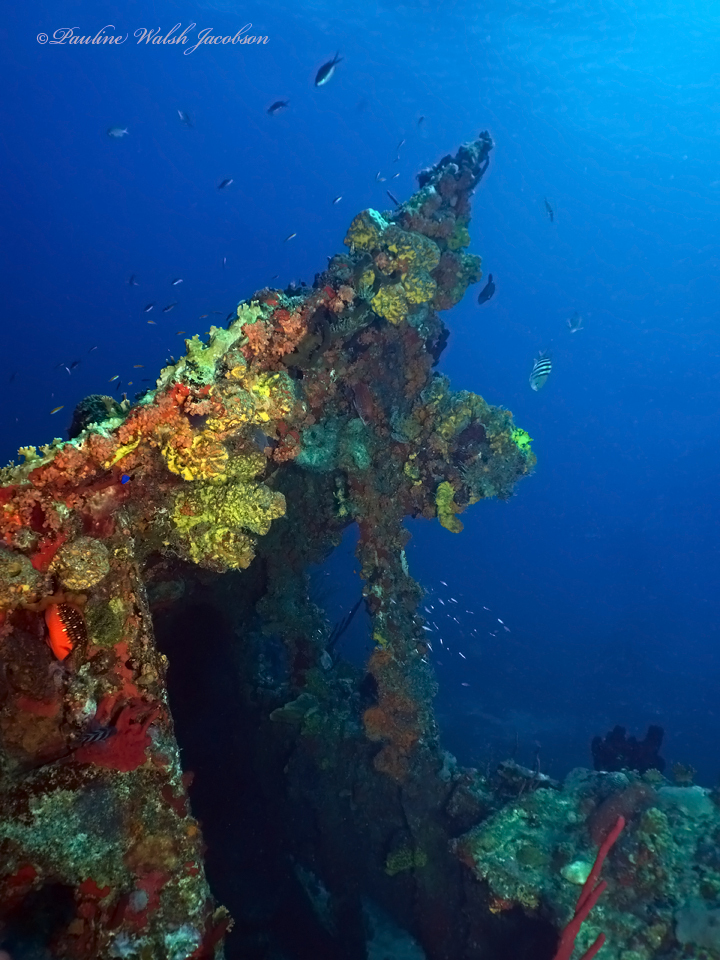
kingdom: Animalia
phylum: Porifera
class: Demospongiae
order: Verongiida
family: Aplysinidae
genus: Aplysina
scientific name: Aplysina lacunosa
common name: Convoluted barrel sponge
